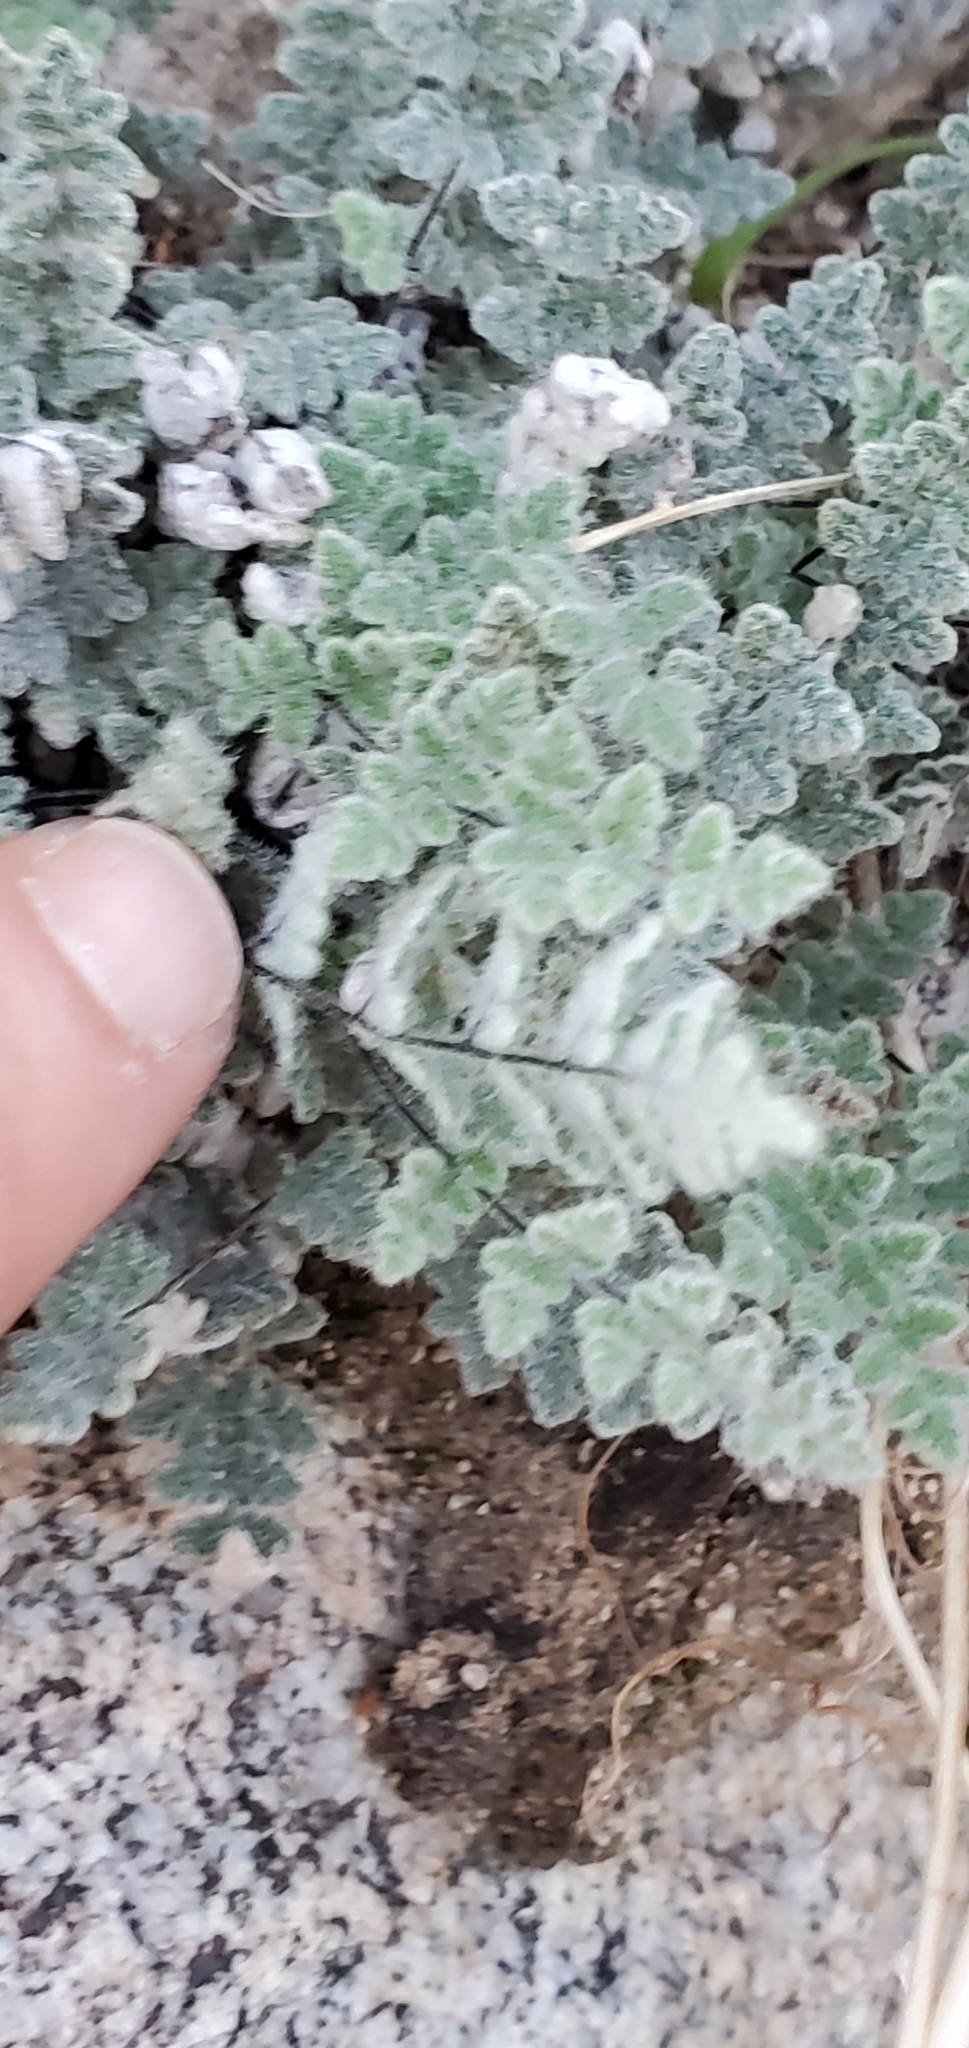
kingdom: Plantae
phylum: Tracheophyta
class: Polypodiopsida
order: Polypodiales
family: Pteridaceae
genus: Myriopteris
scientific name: Myriopteris parryi
